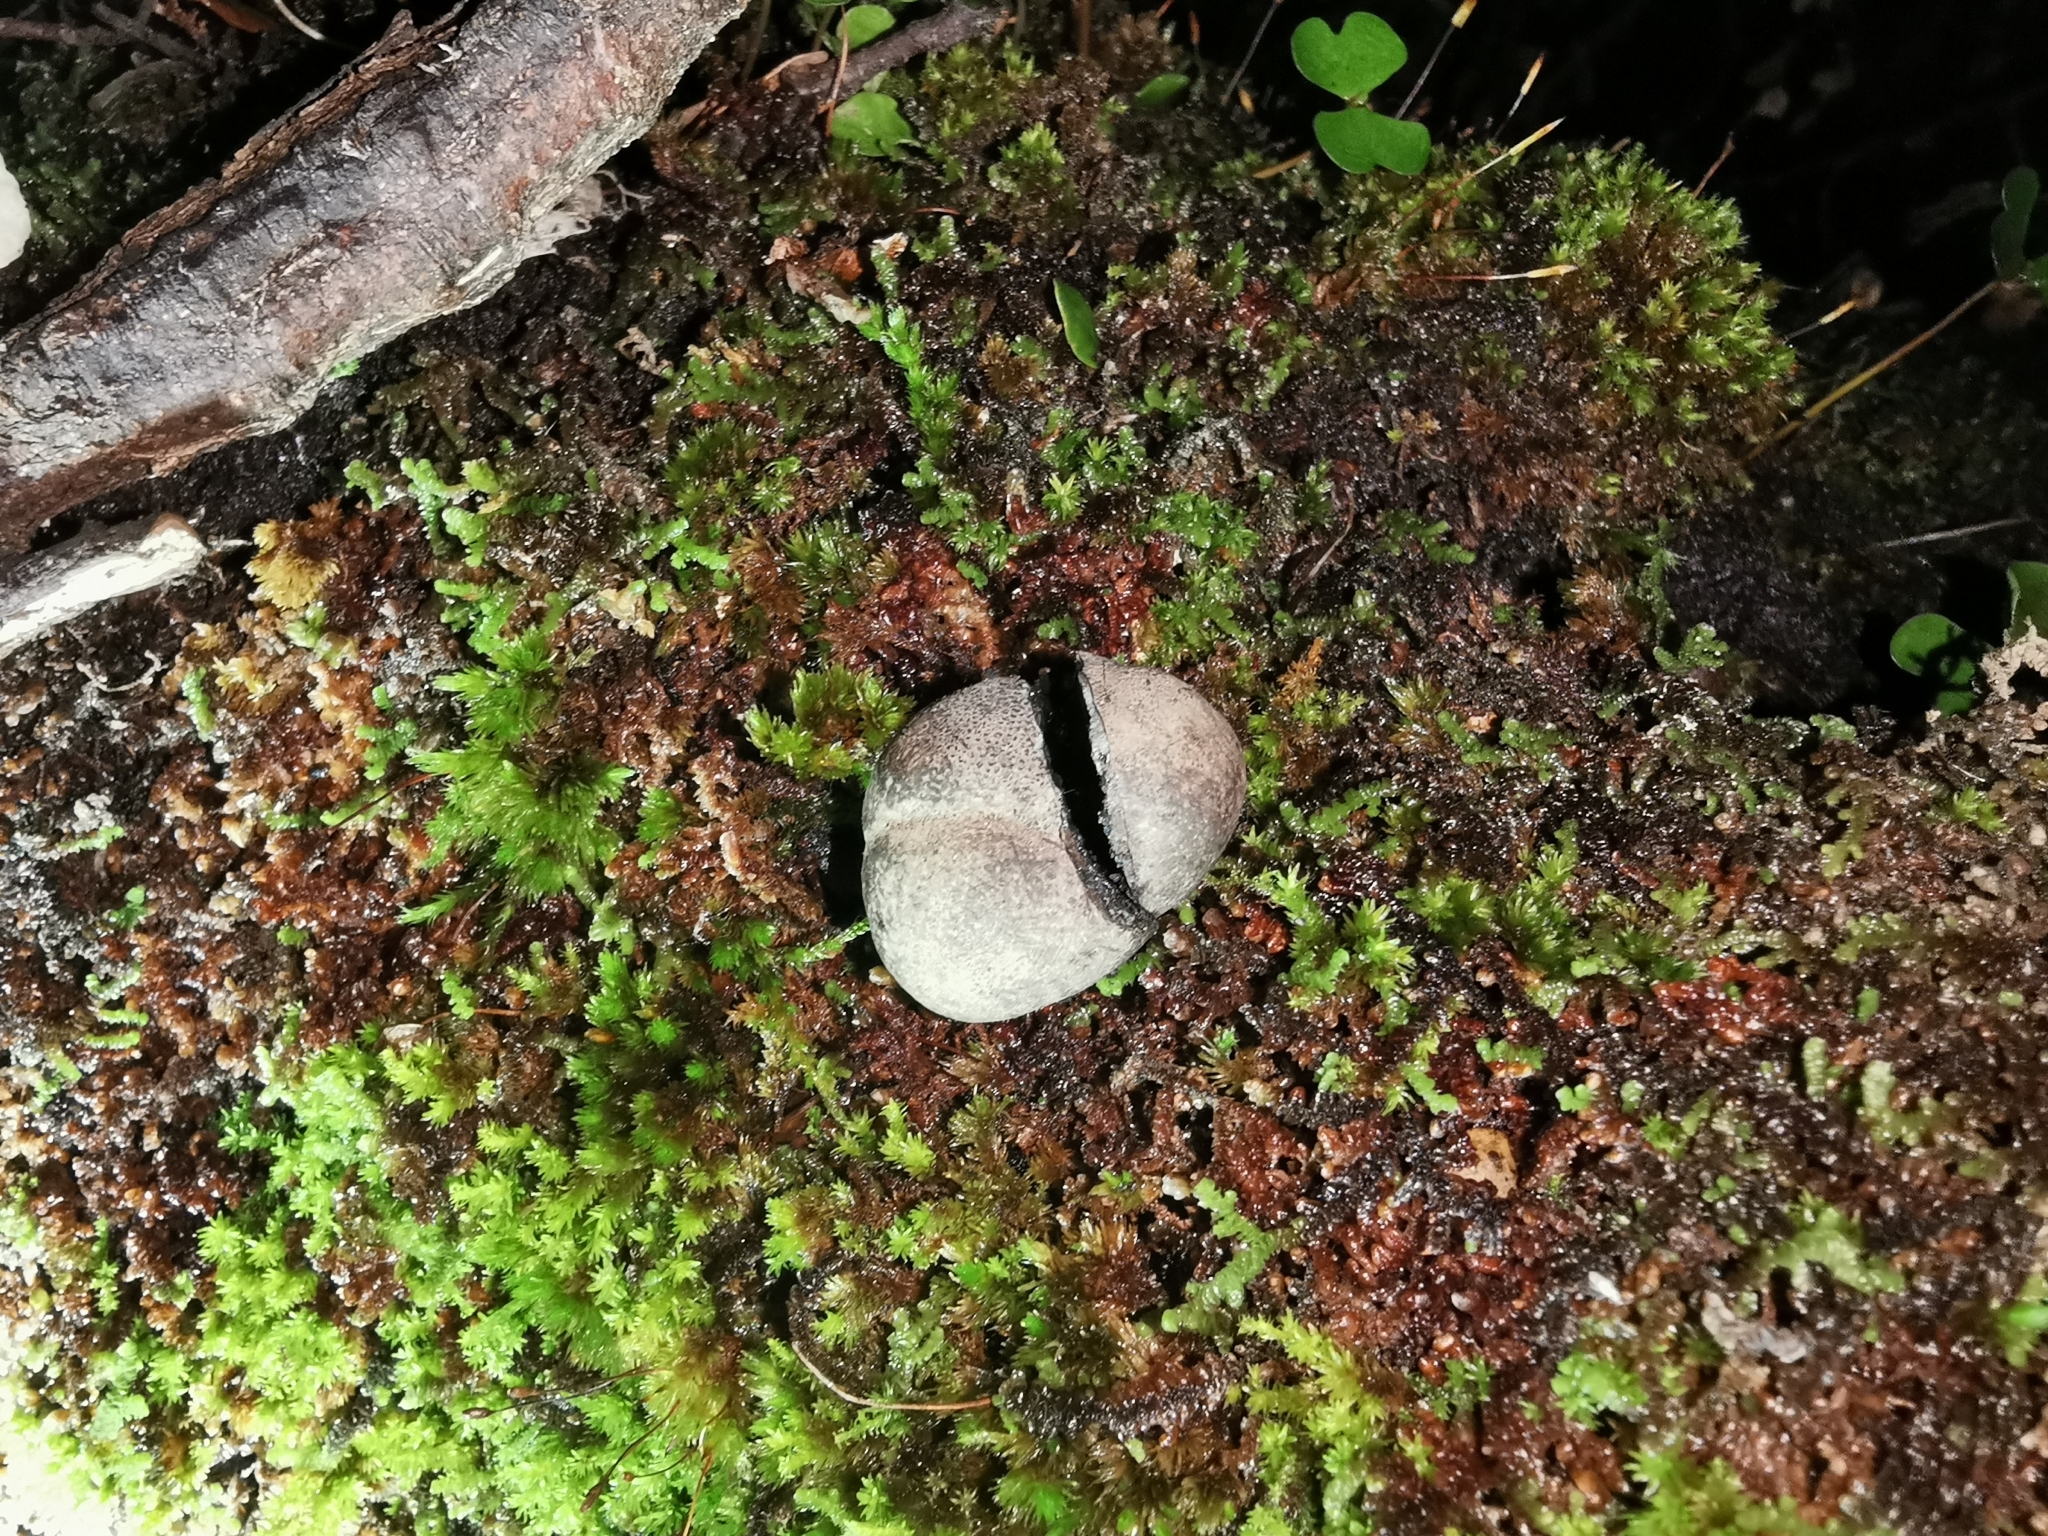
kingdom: Fungi
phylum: Ascomycota
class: Sordariomycetes
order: Xylariales
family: Hypoxylaceae
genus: Daldinia
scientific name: Daldinia
